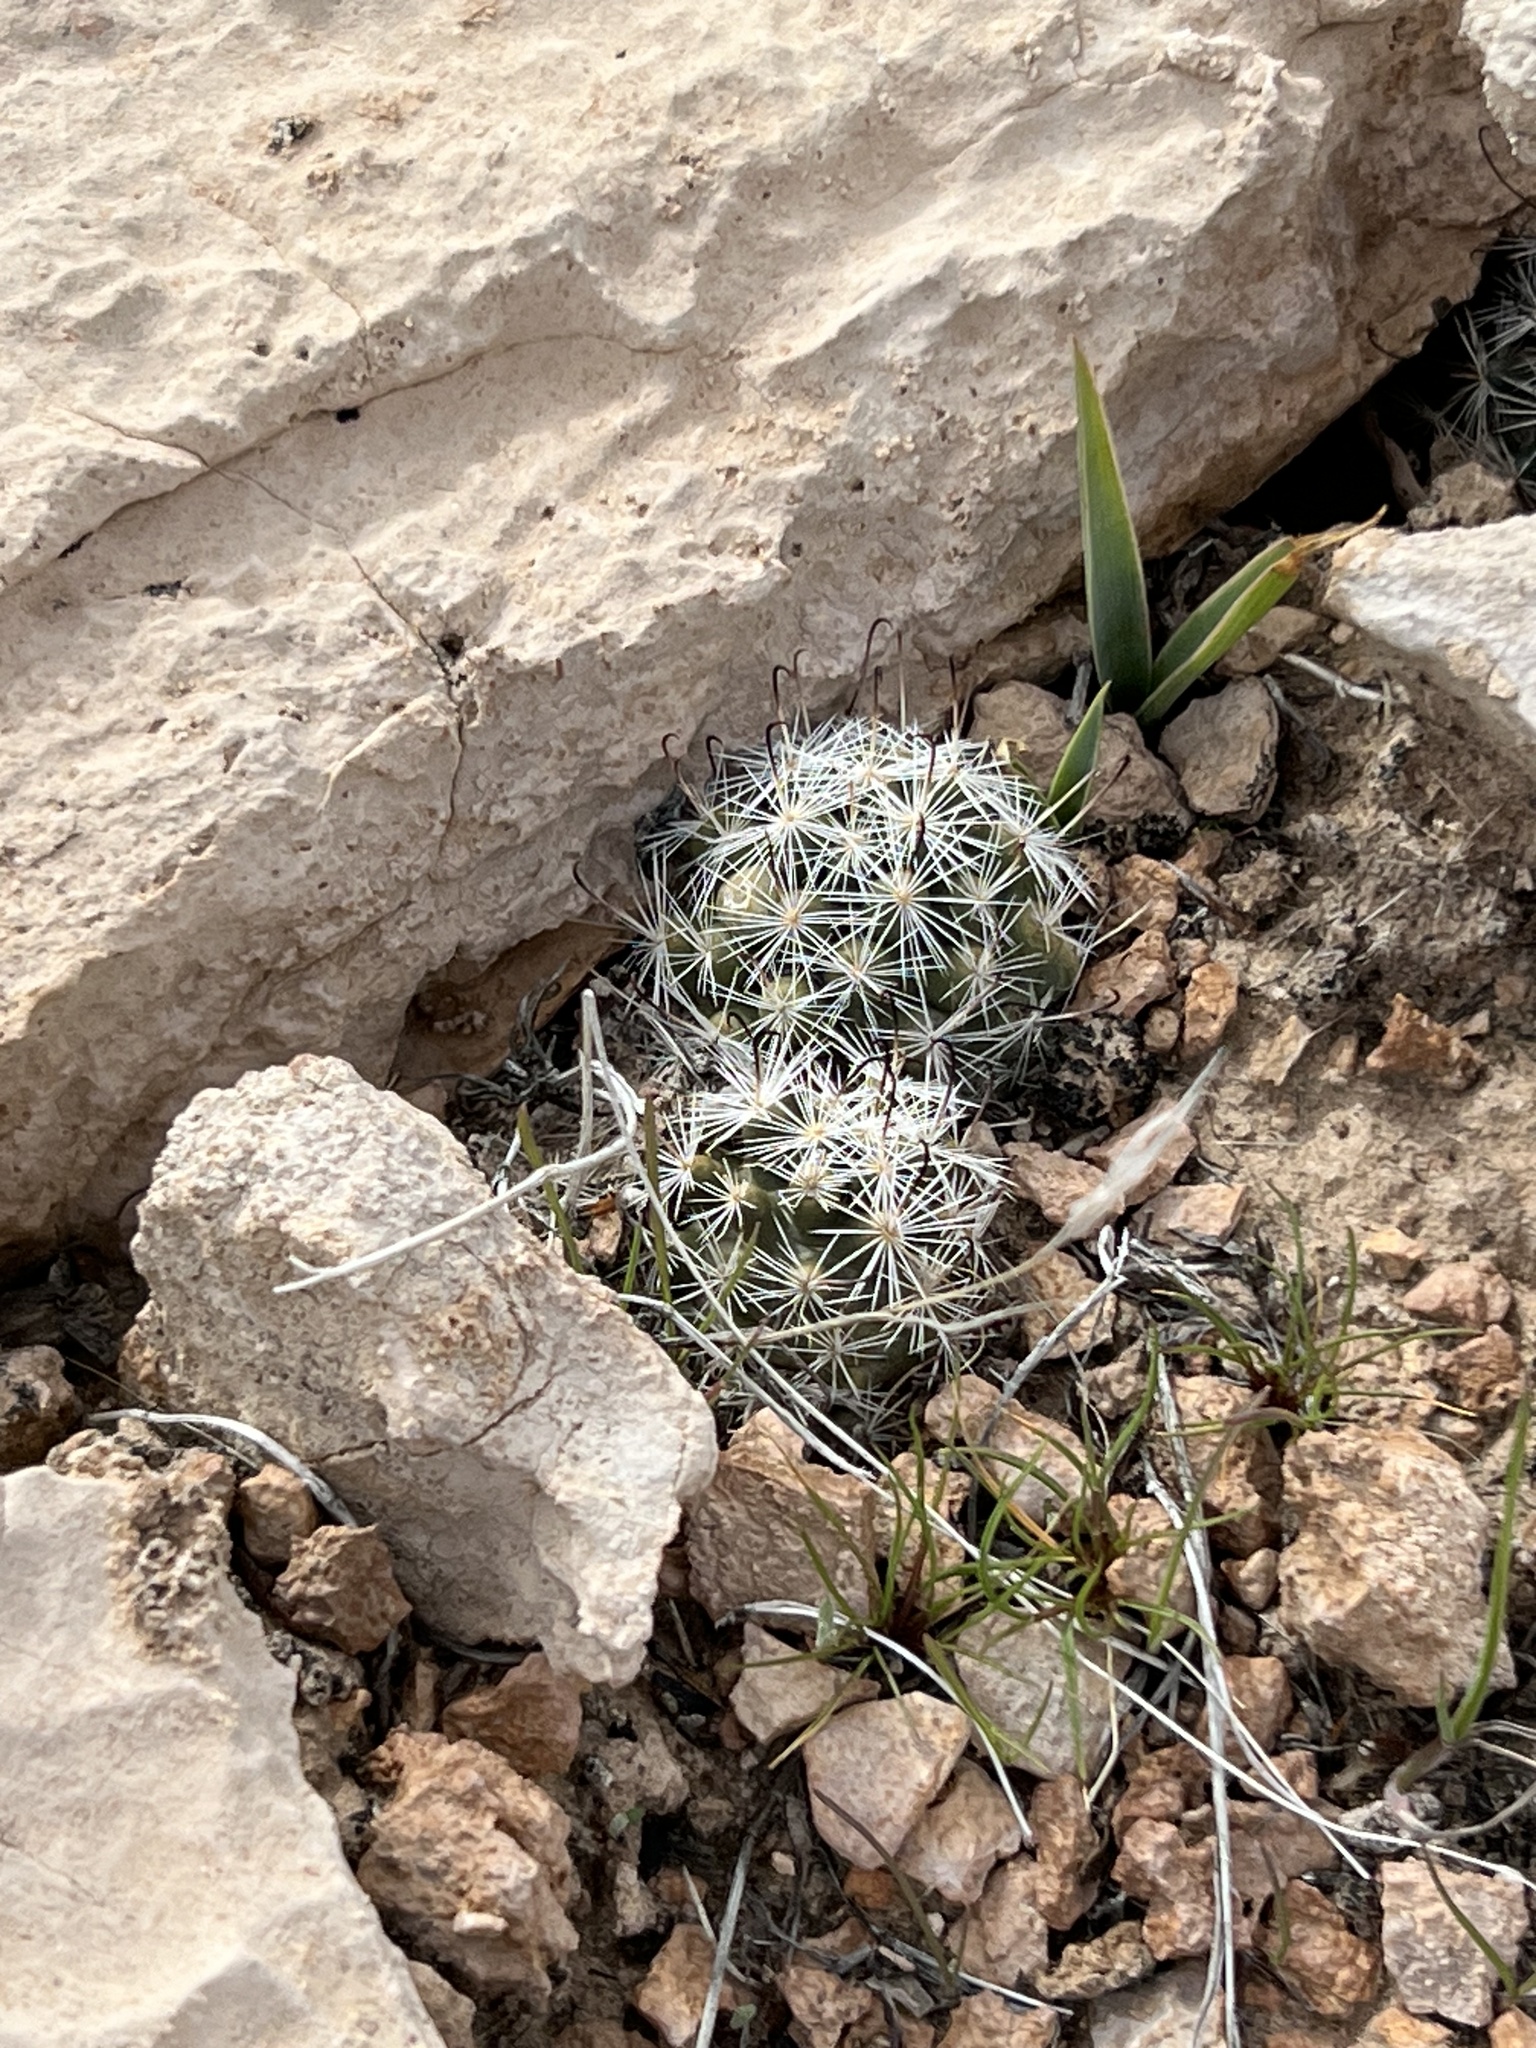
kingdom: Plantae
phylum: Tracheophyta
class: Magnoliopsida
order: Caryophyllales
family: Cactaceae
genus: Cochemiea
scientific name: Cochemiea tetrancistra
